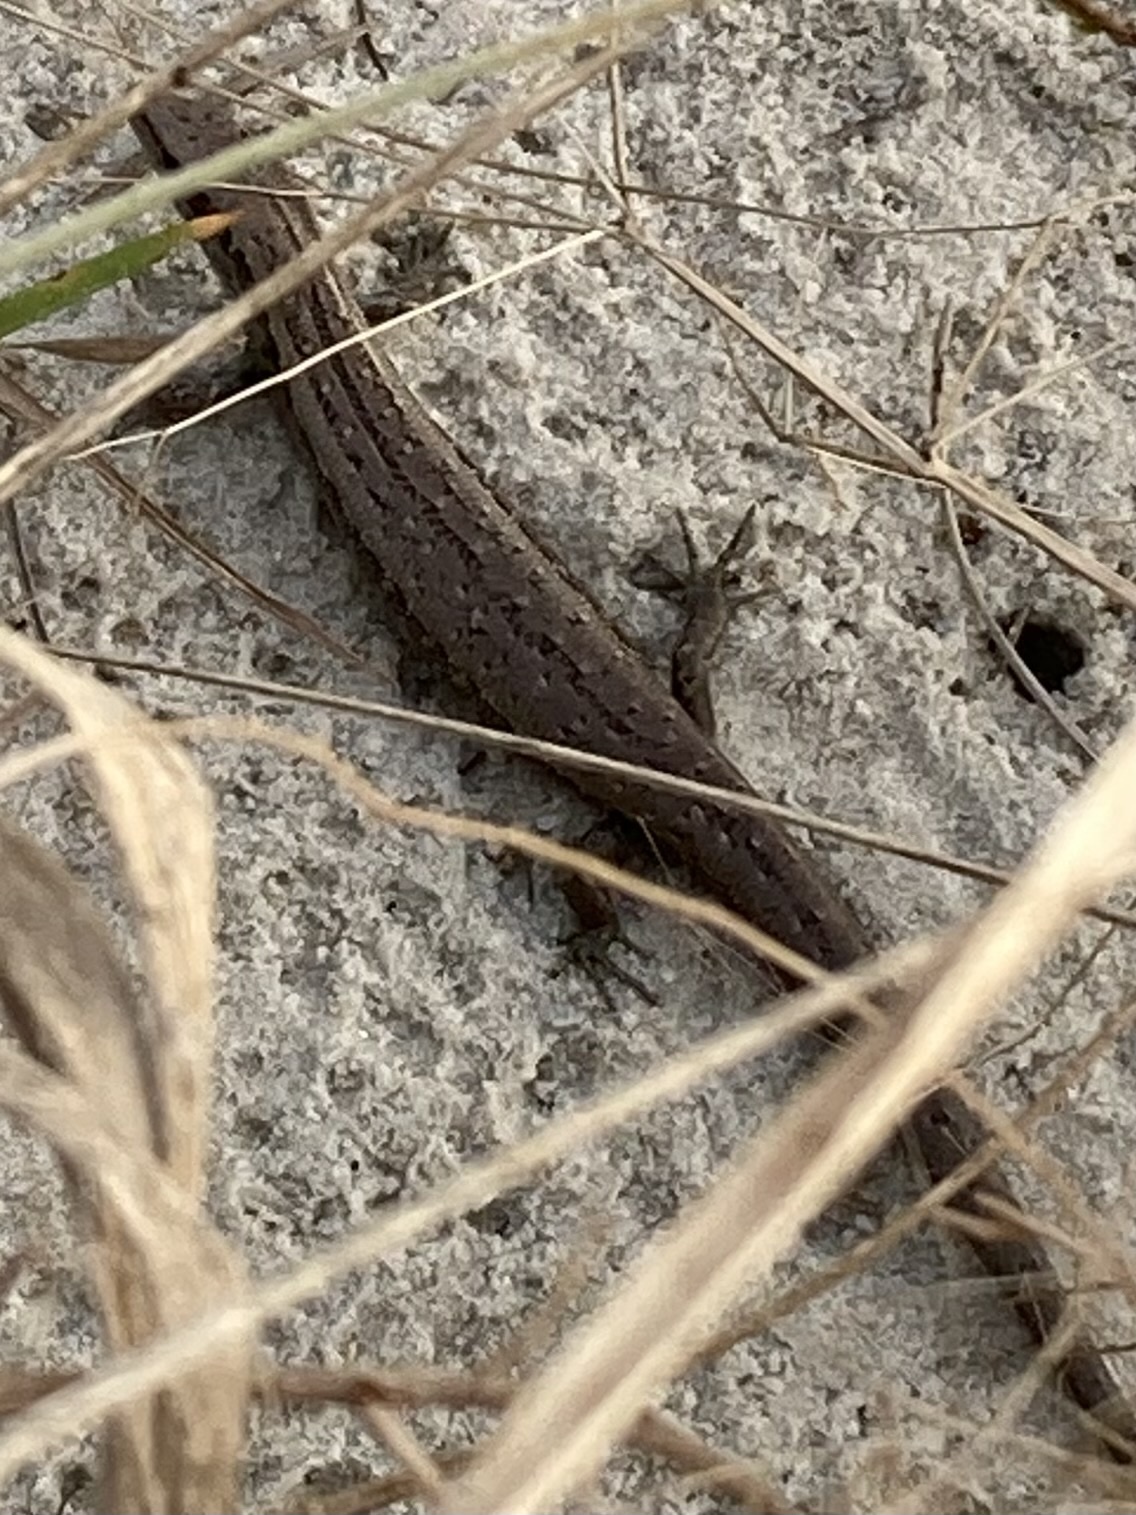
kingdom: Animalia
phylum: Chordata
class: Squamata
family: Scincidae
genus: Oligosoma
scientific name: Oligosoma smithi
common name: Shore skink
